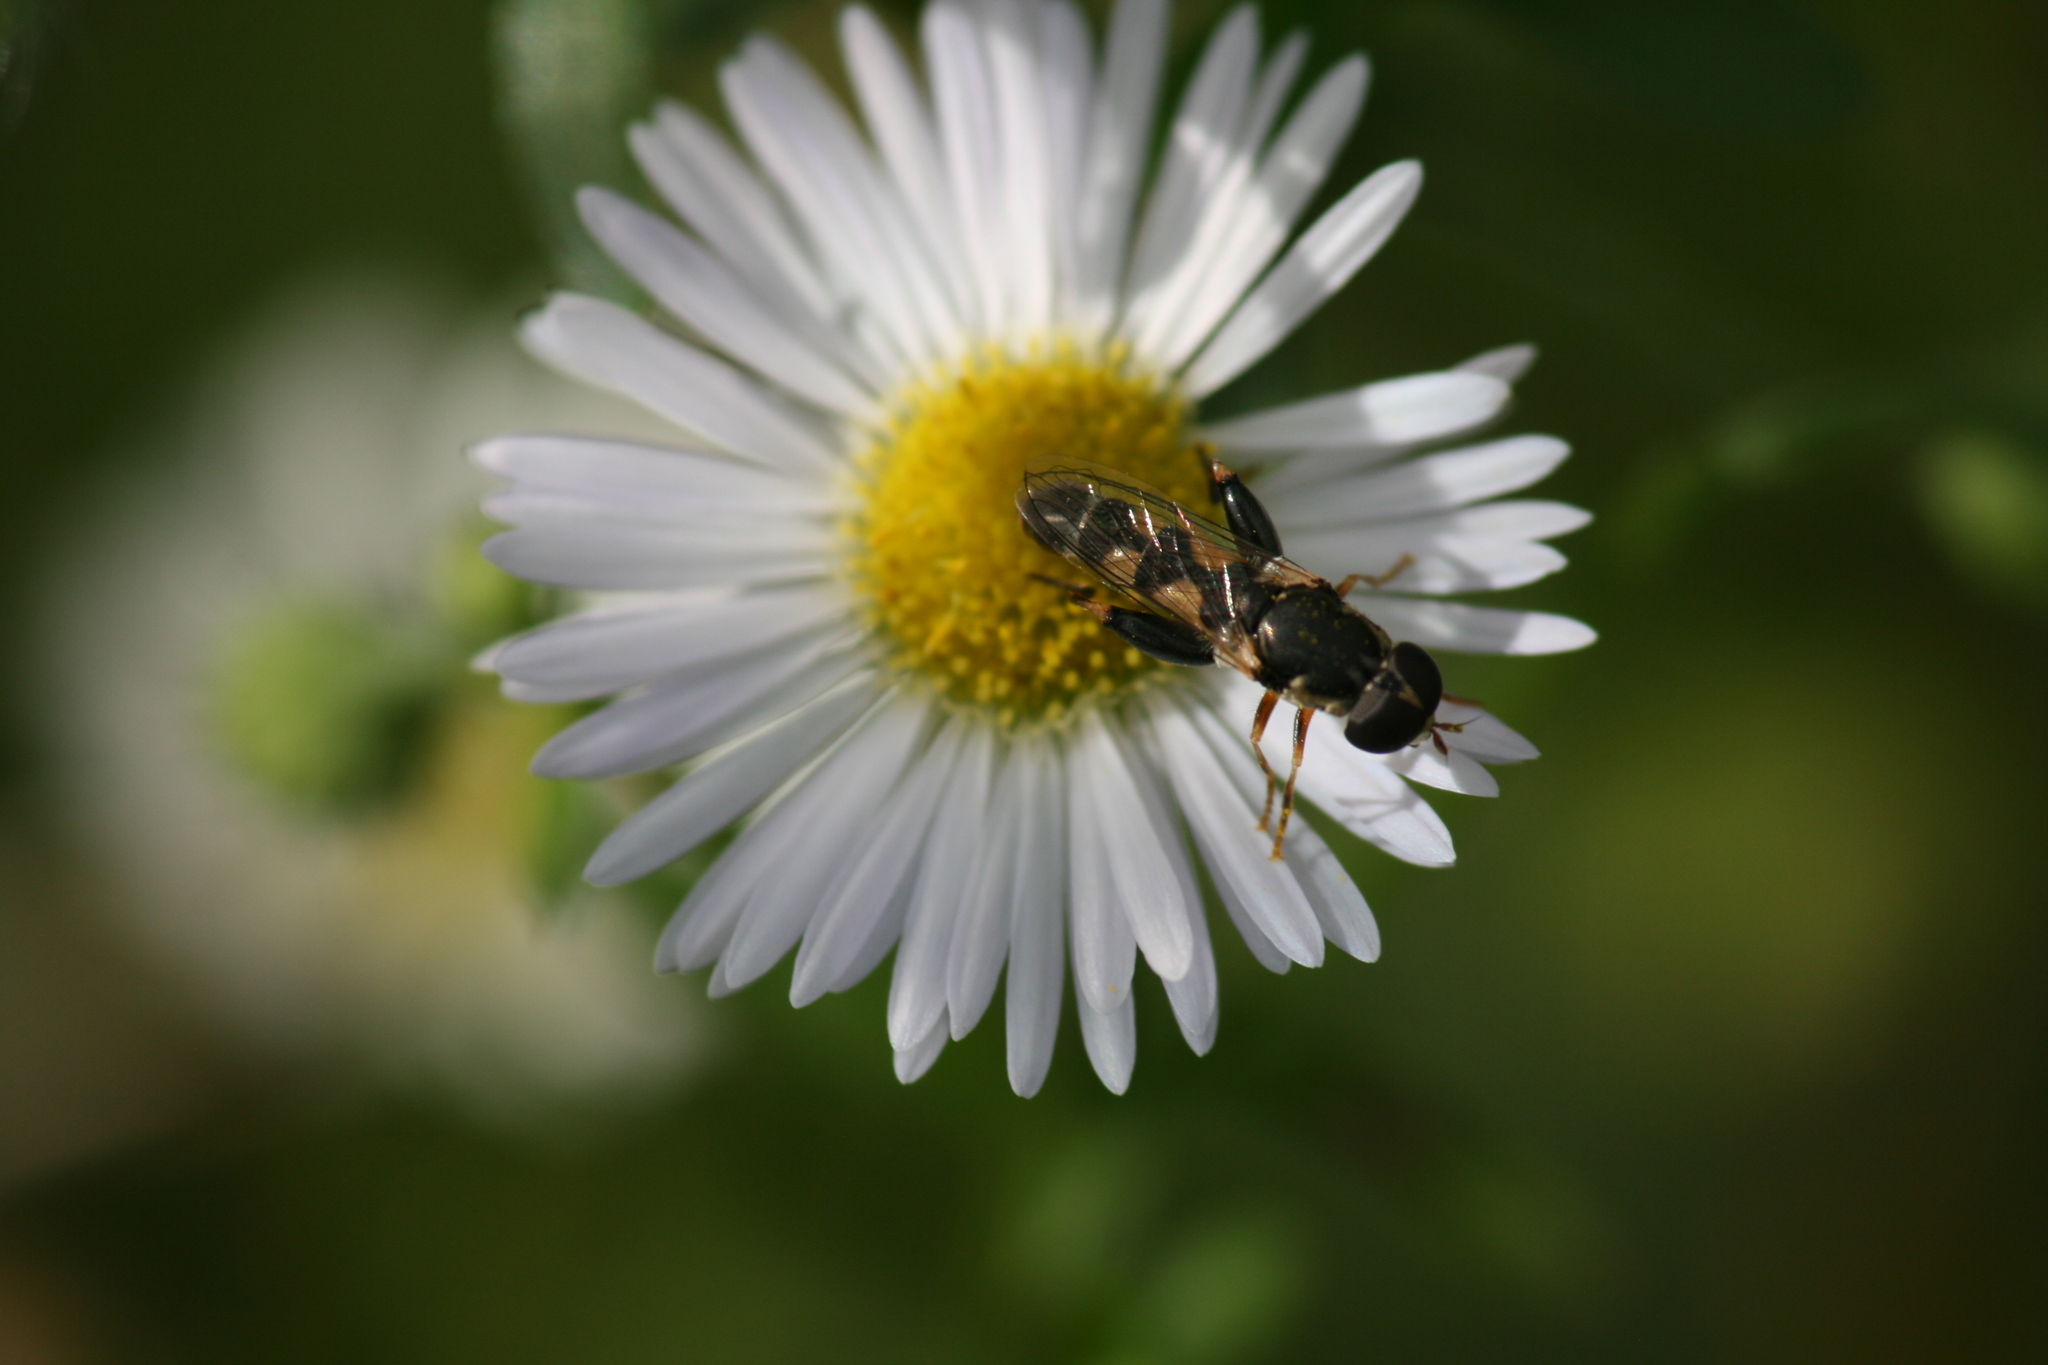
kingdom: Animalia
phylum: Arthropoda
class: Insecta
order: Diptera
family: Syrphidae
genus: Syritta
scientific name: Syritta pipiens
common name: Hover fly
